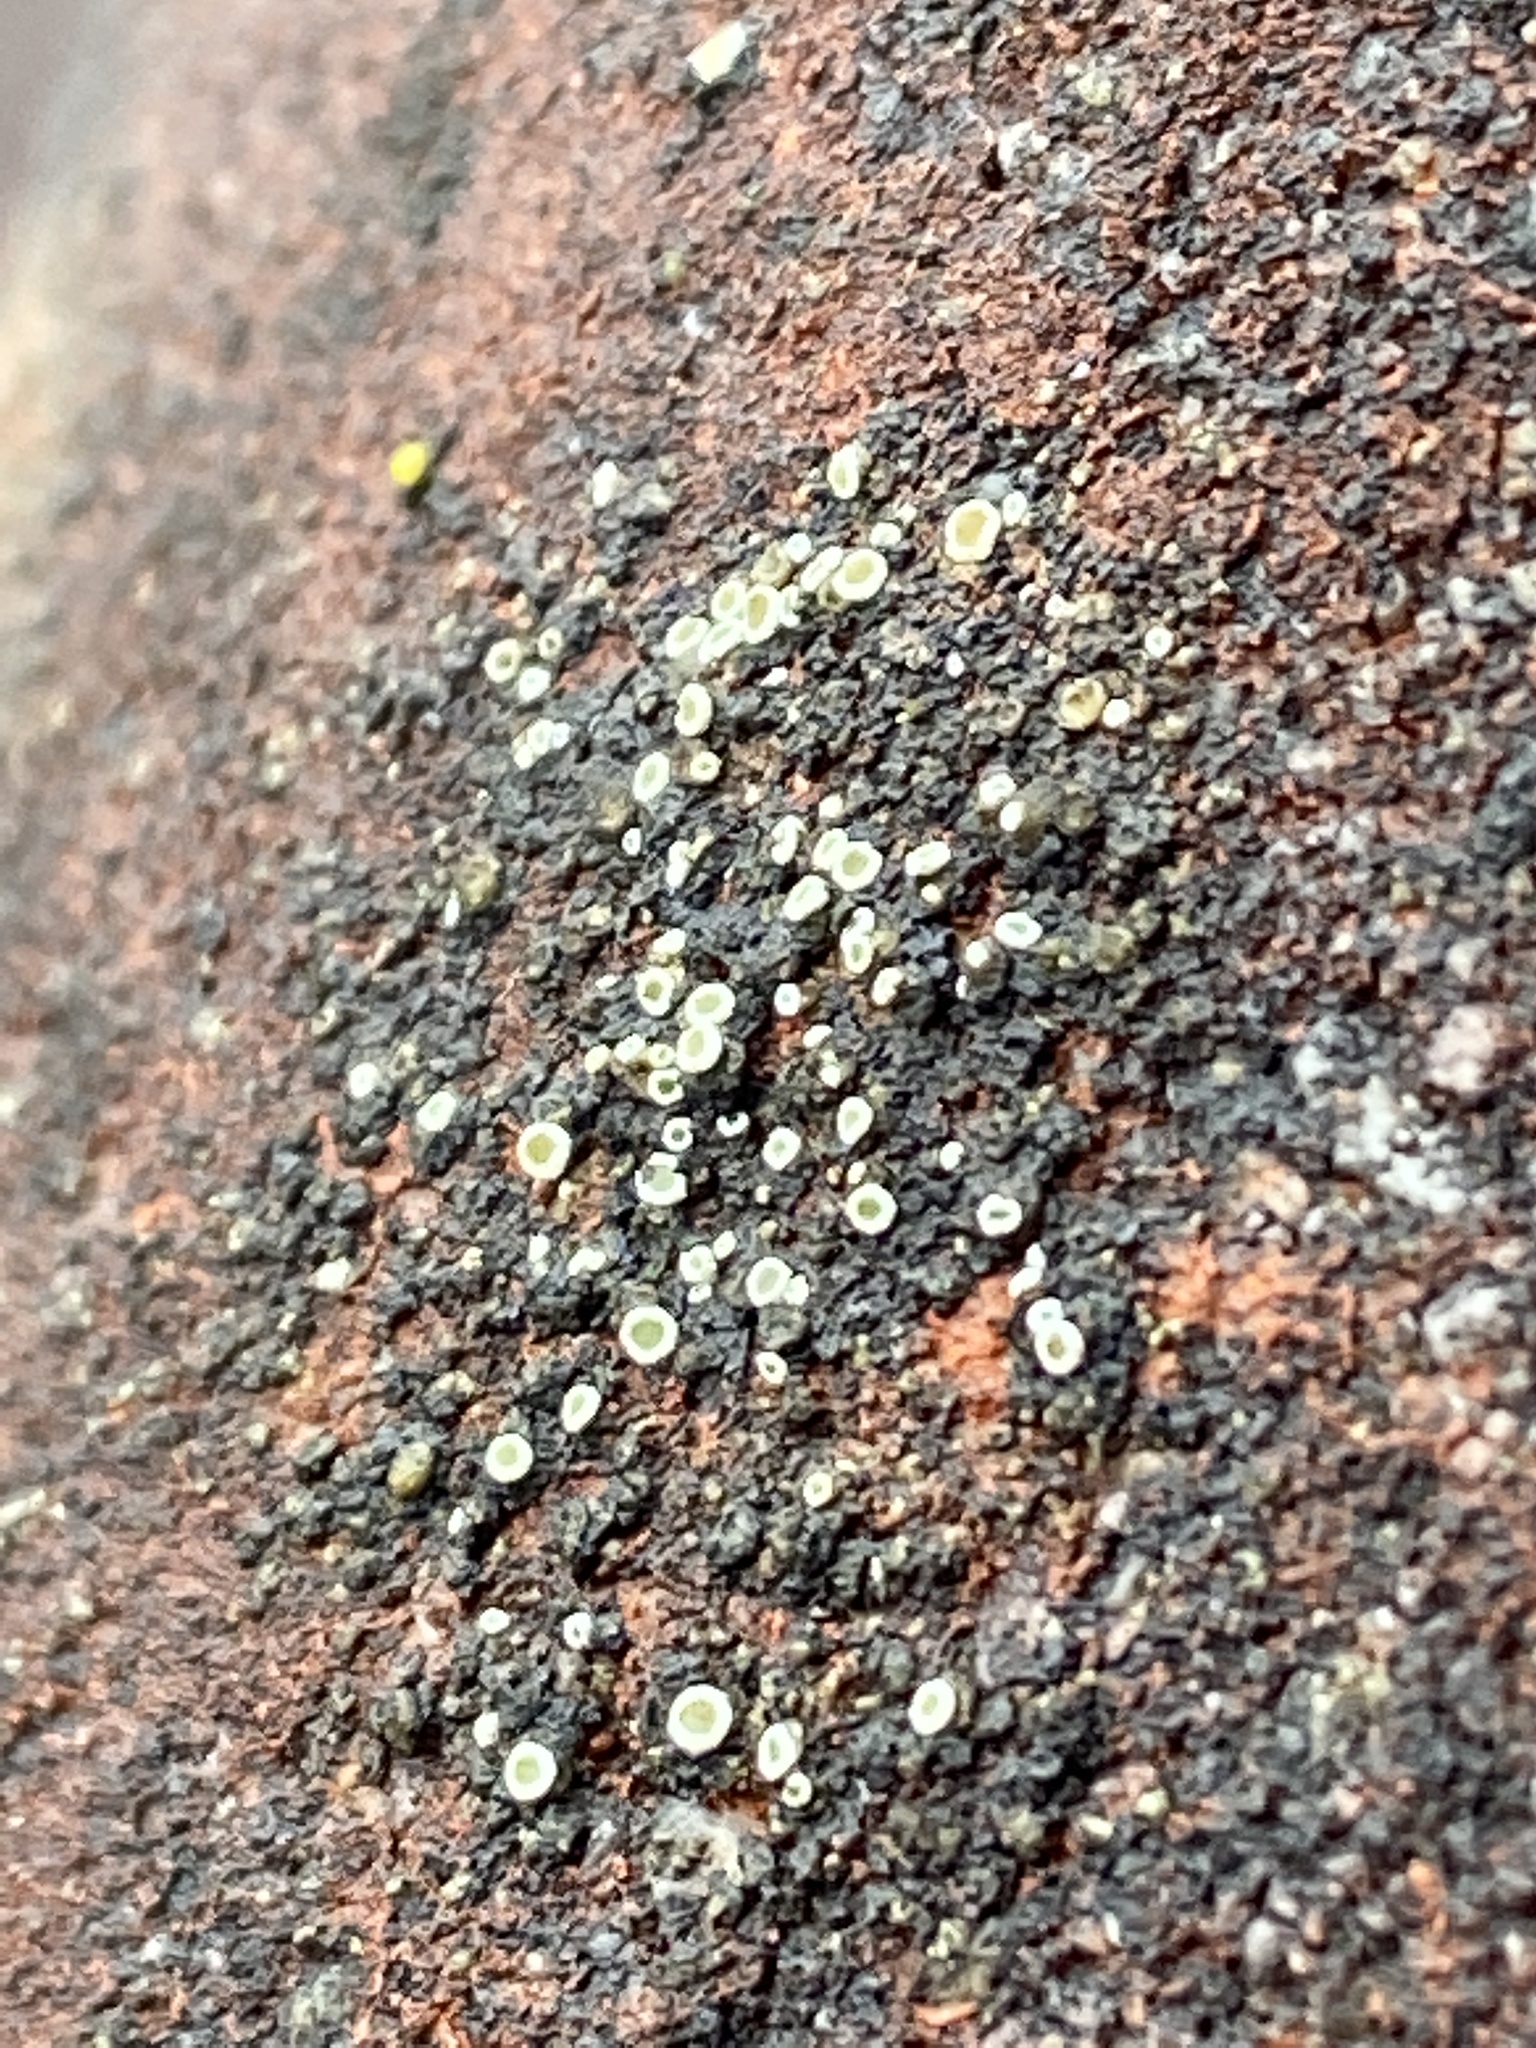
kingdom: Fungi
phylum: Ascomycota
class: Lecanoromycetes
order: Lecanorales
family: Lecanoraceae
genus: Polyozosia
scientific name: Polyozosia dispersa
